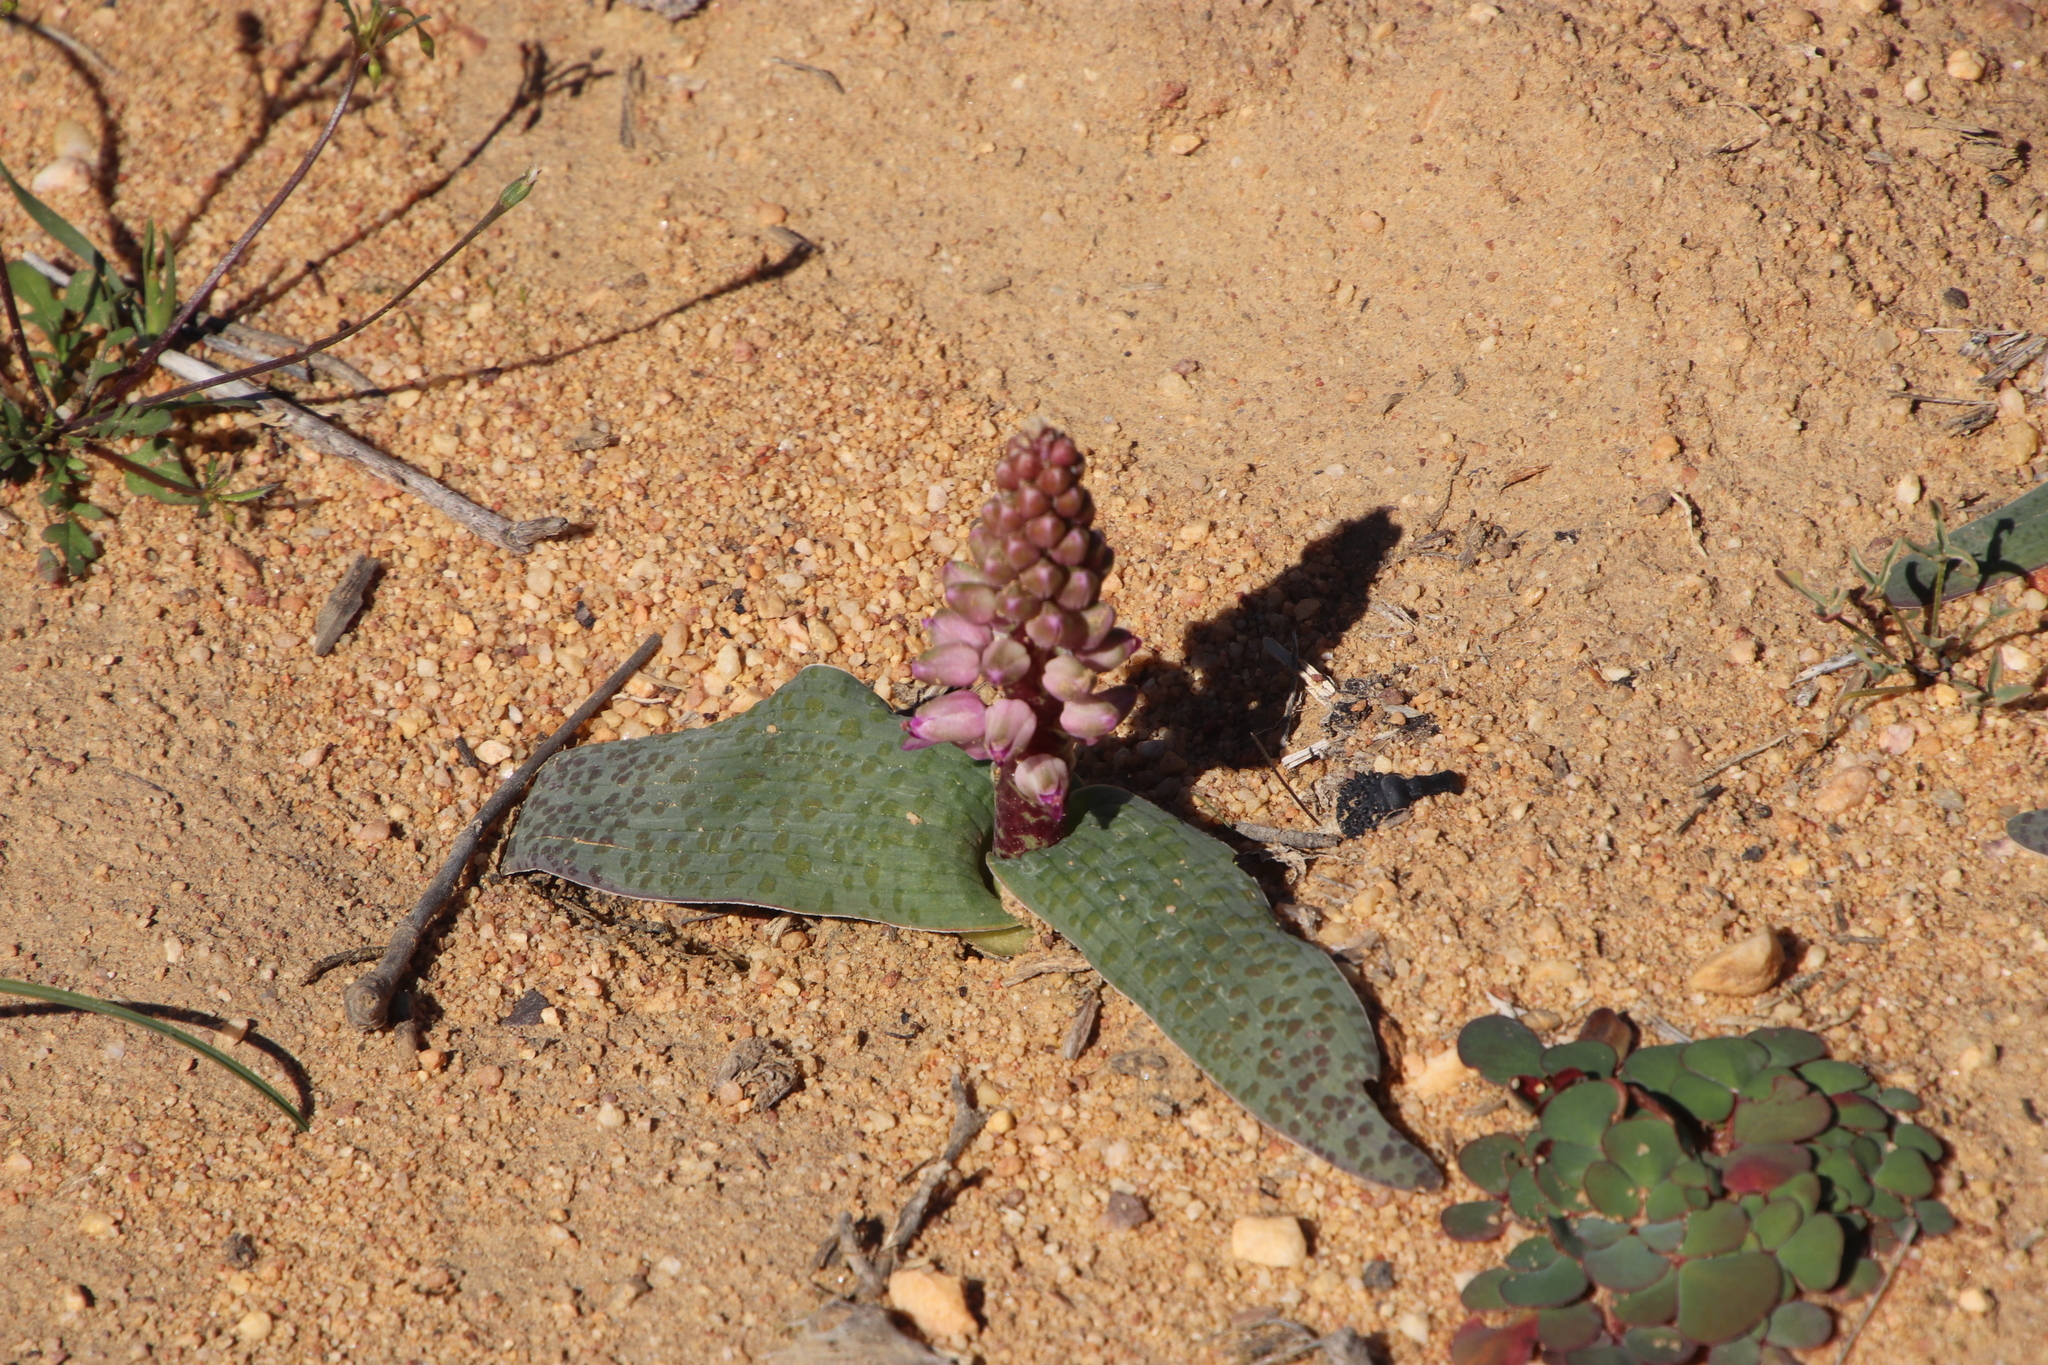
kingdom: Plantae
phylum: Tracheophyta
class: Liliopsida
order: Asparagales
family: Asparagaceae
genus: Lachenalia
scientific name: Lachenalia nardousbergensis
